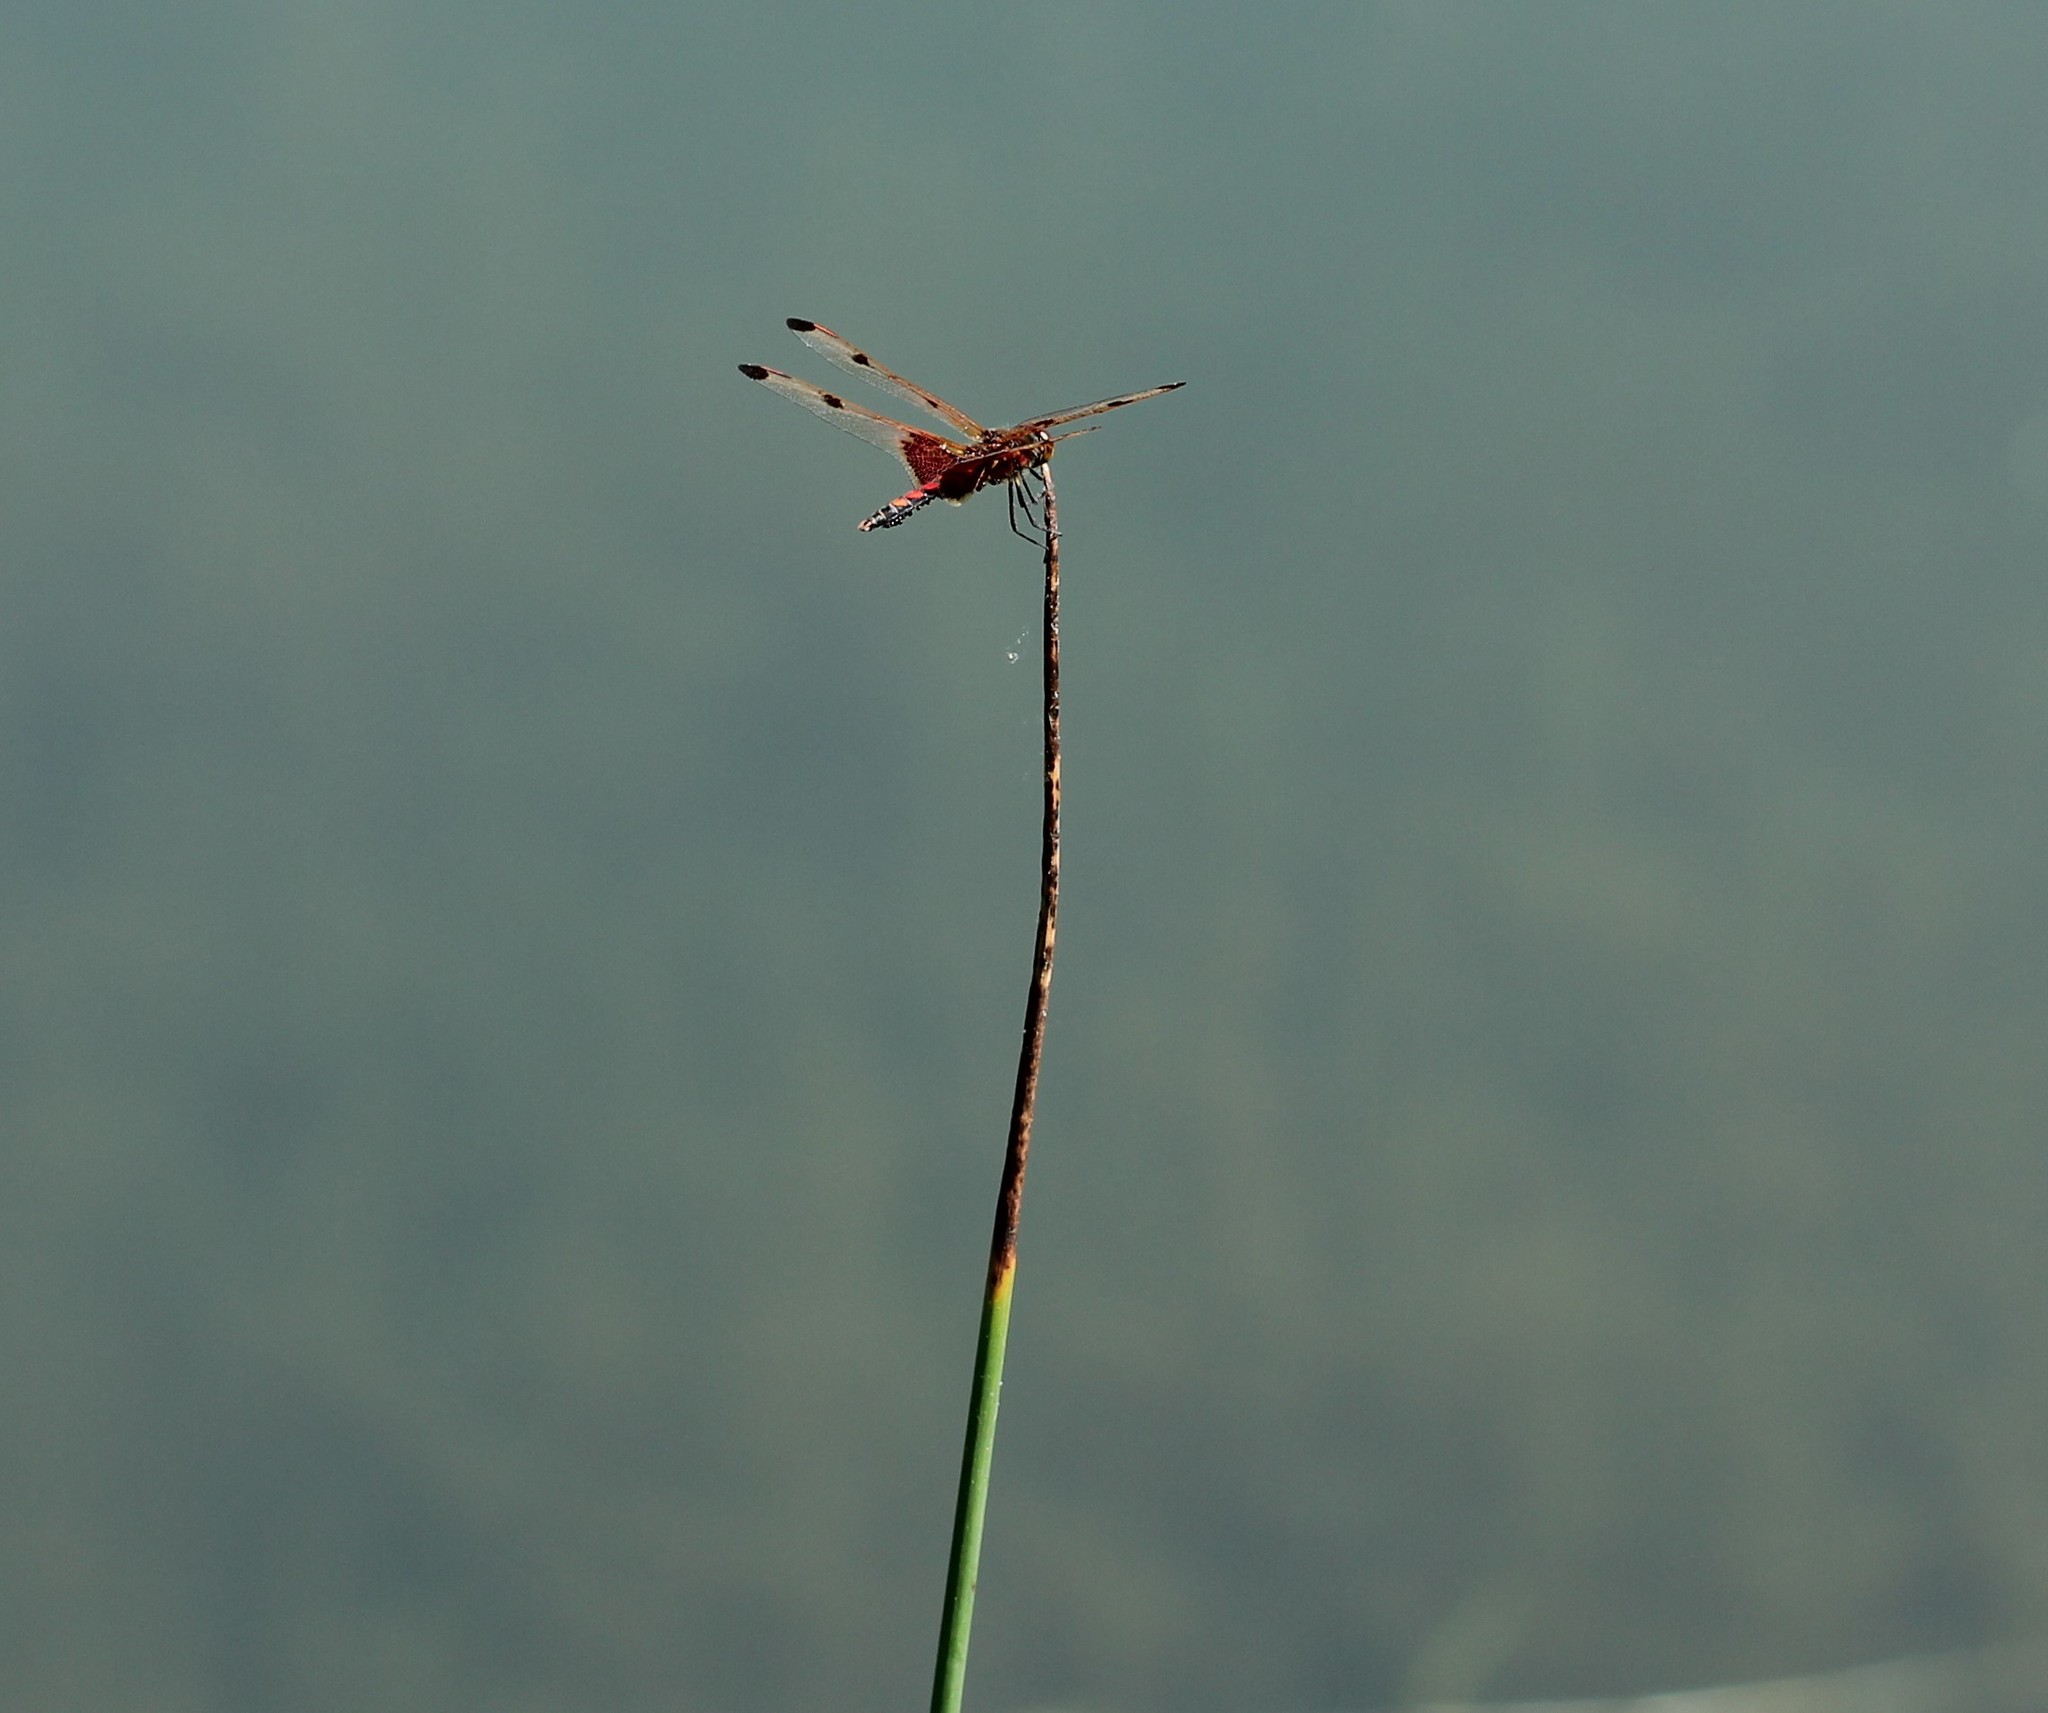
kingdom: Animalia
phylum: Arthropoda
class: Insecta
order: Odonata
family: Libellulidae
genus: Celithemis
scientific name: Celithemis elisa
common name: Calico pennant
